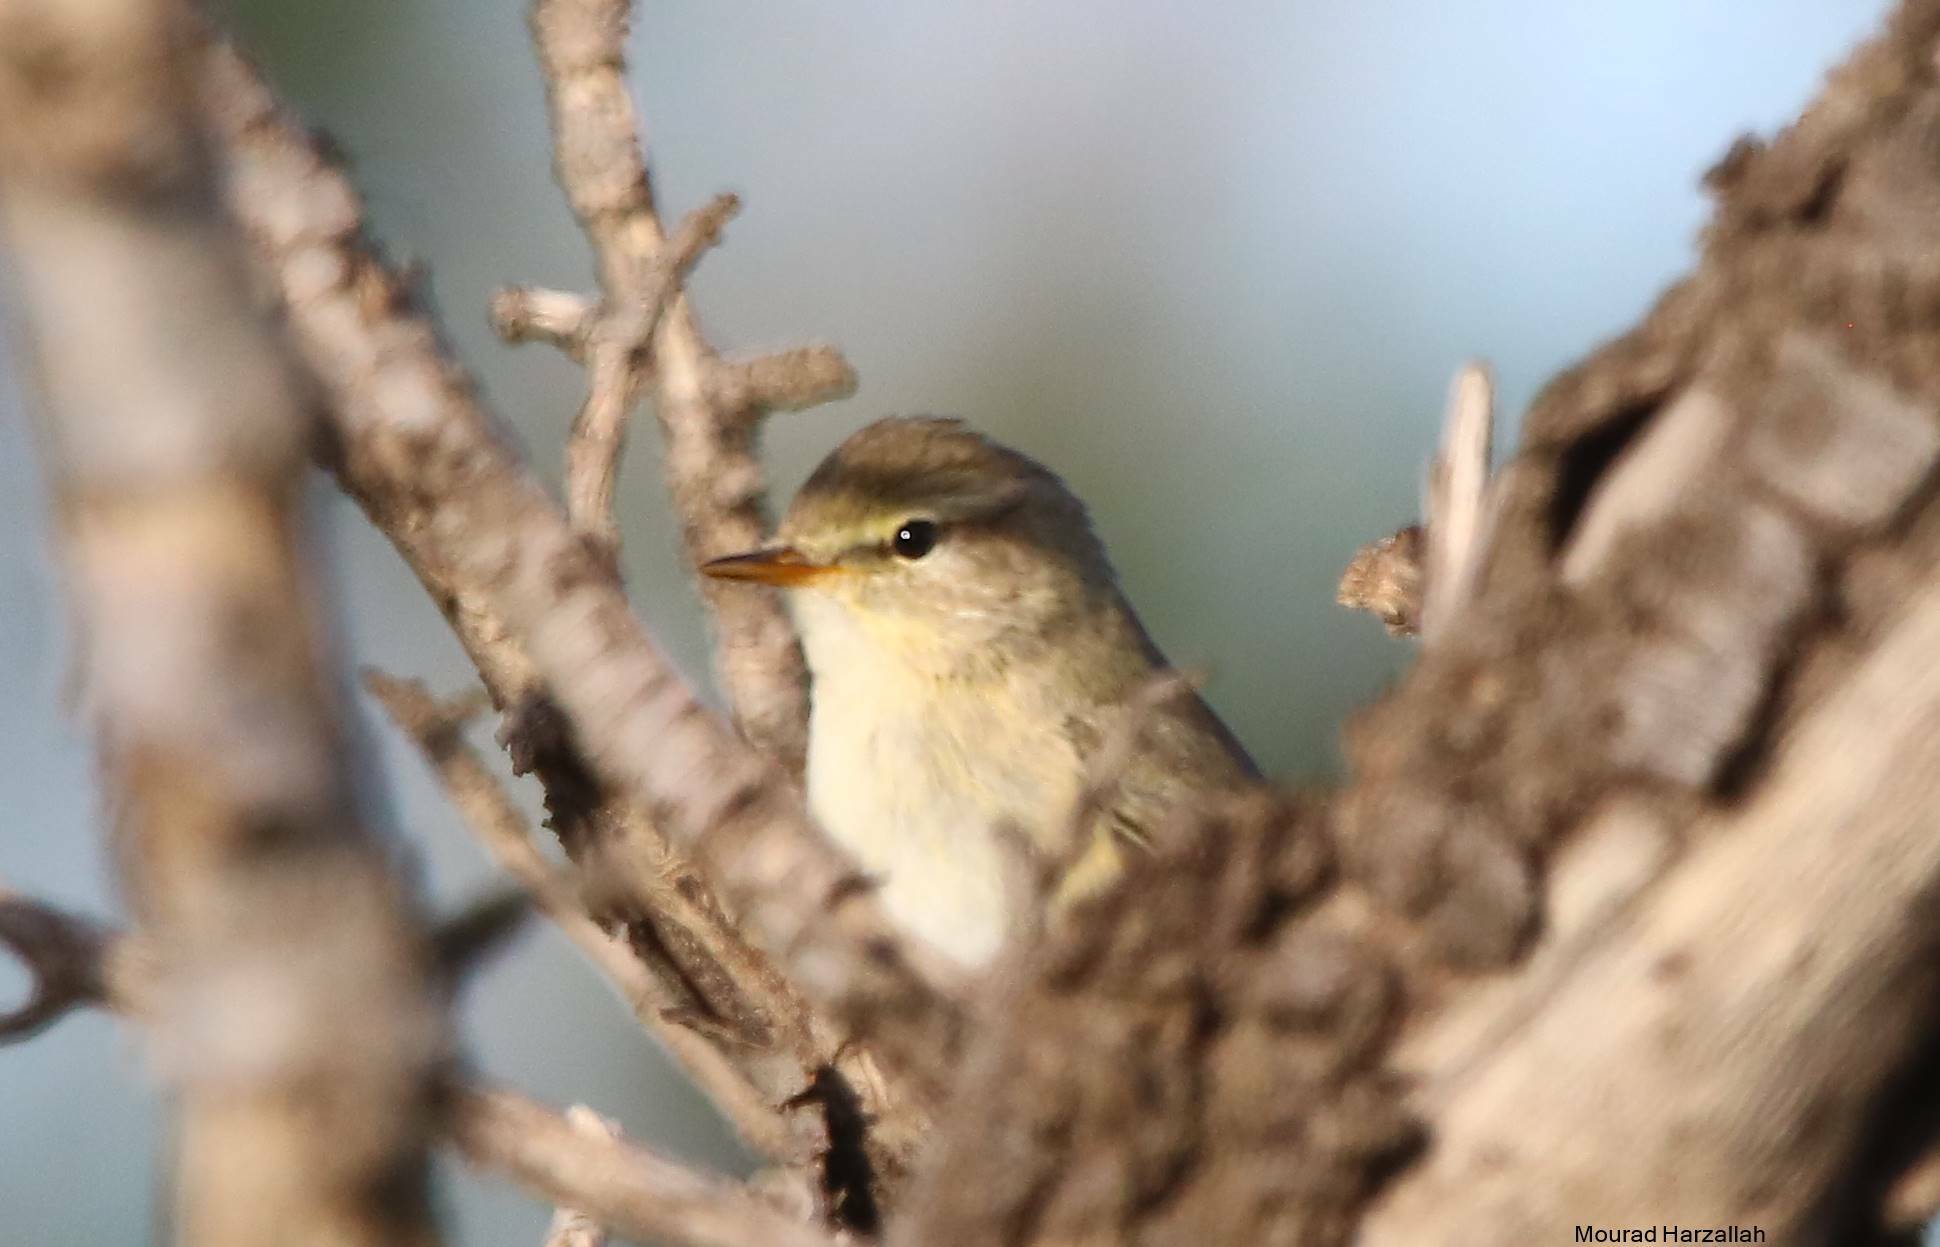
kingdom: Animalia
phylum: Chordata
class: Aves
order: Passeriformes
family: Phylloscopidae
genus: Phylloscopus
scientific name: Phylloscopus trochilus
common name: Willow warbler
